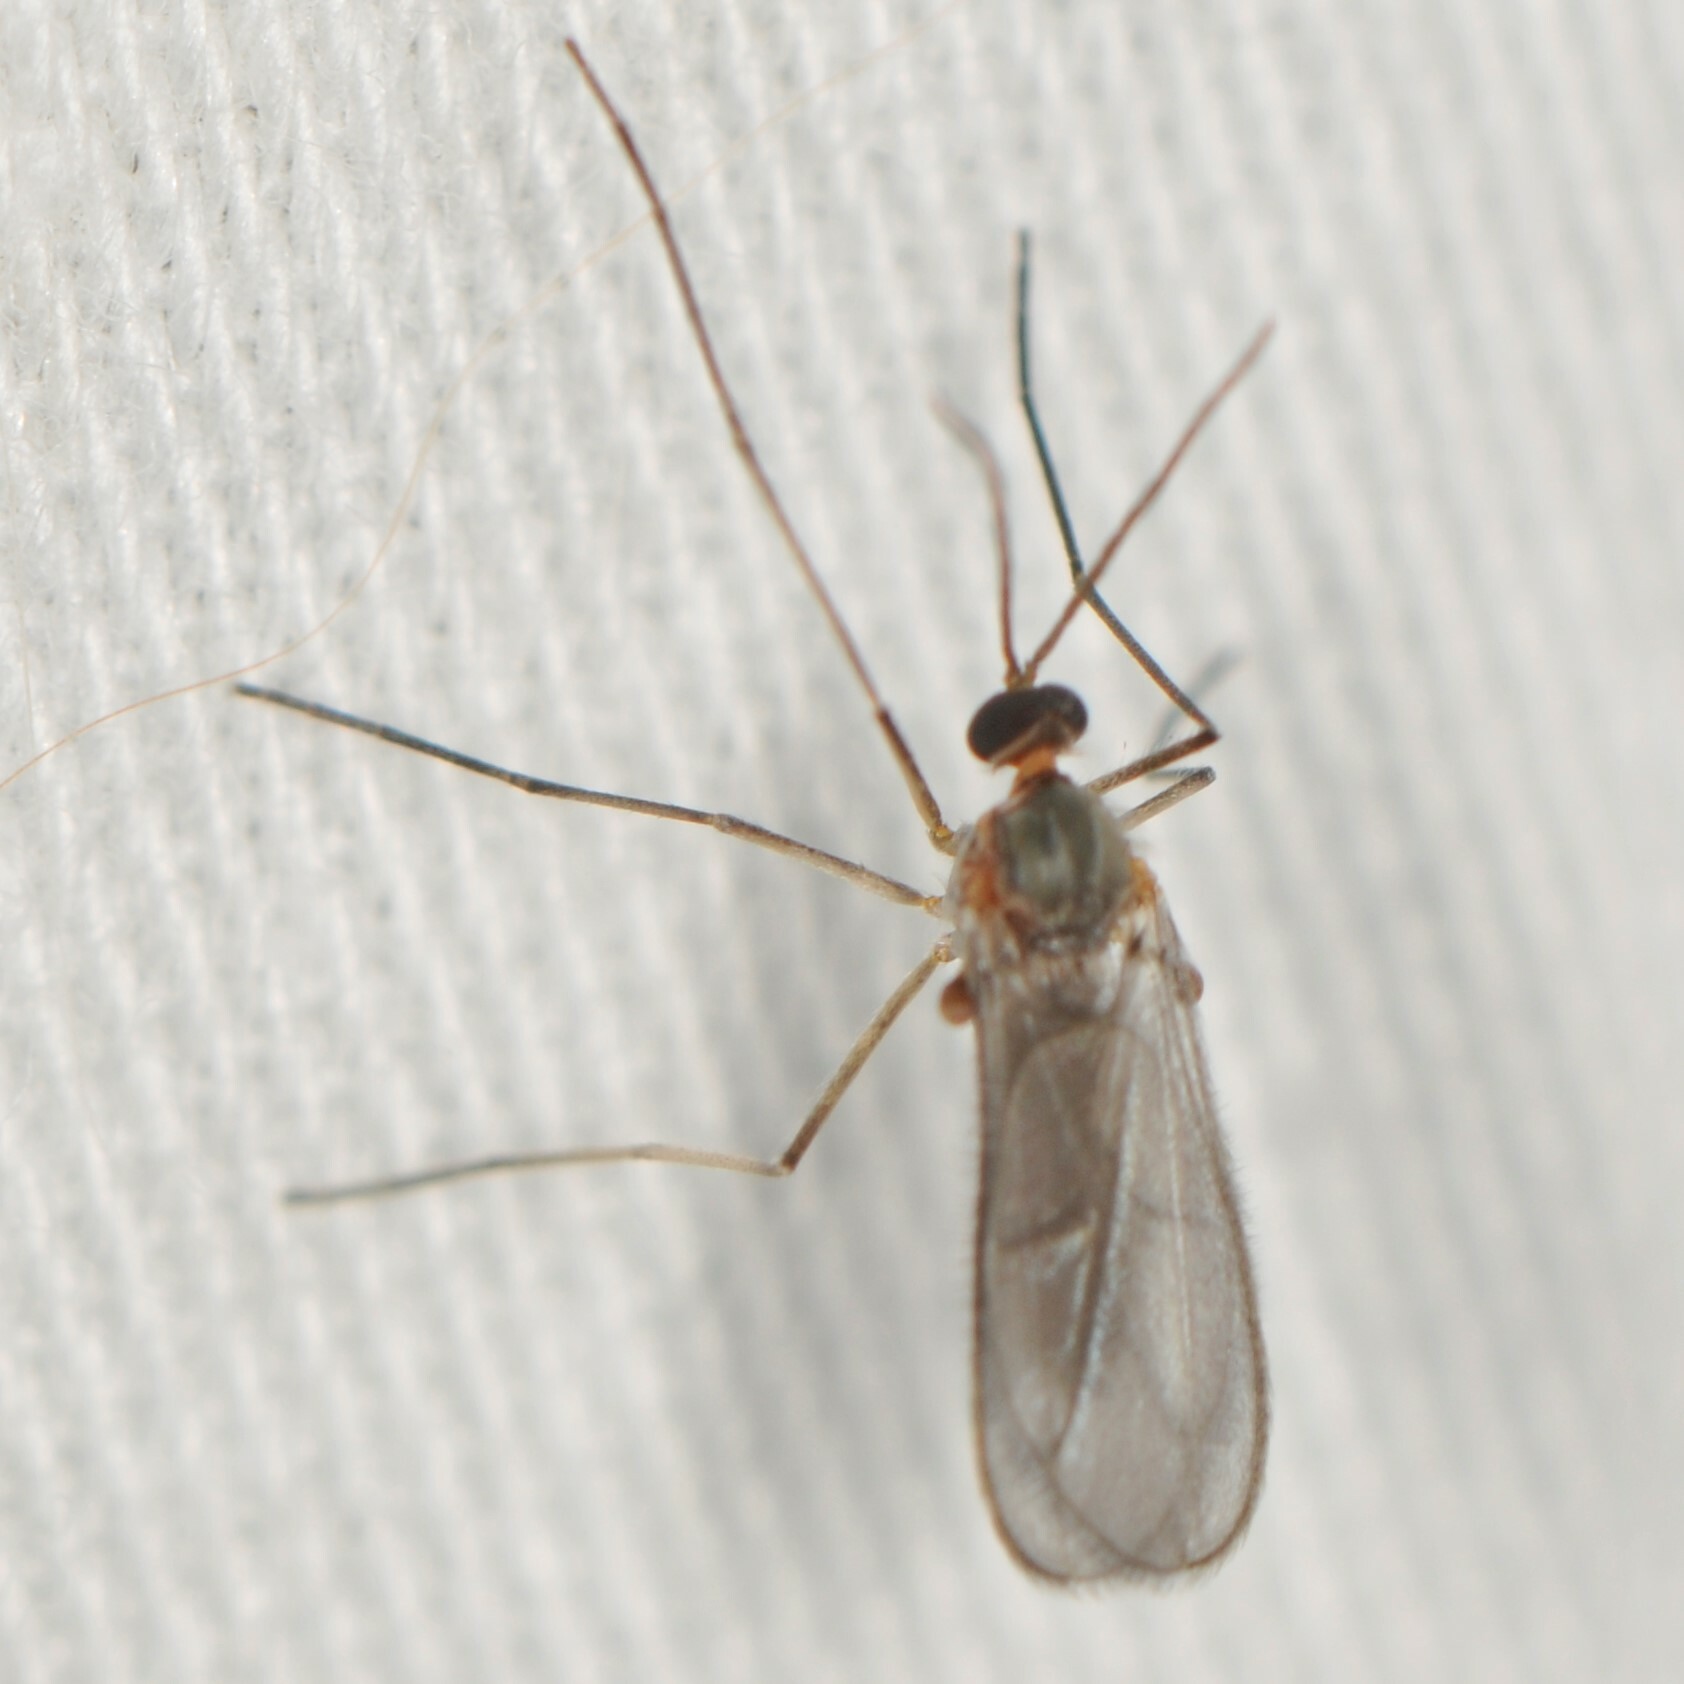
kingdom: Animalia
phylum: Arthropoda
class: Insecta
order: Diptera
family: Cecidomyiidae
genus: Asphondylia
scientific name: Asphondylia
